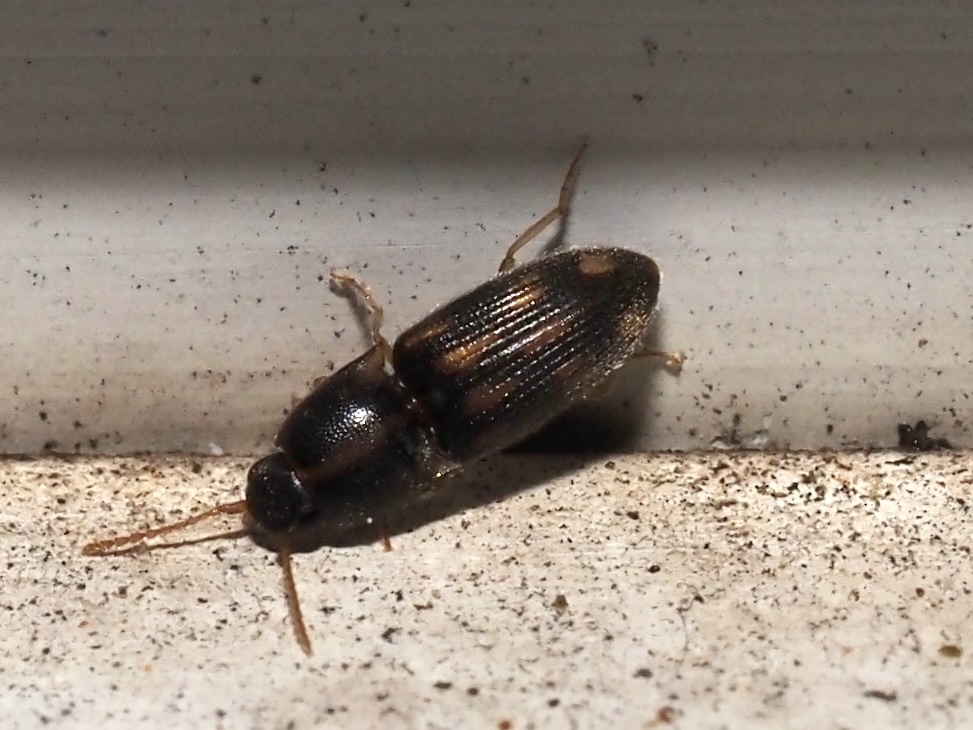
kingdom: Animalia
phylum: Arthropoda
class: Insecta
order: Coleoptera
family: Elateridae
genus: Monocrepidius
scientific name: Monocrepidius bellus
